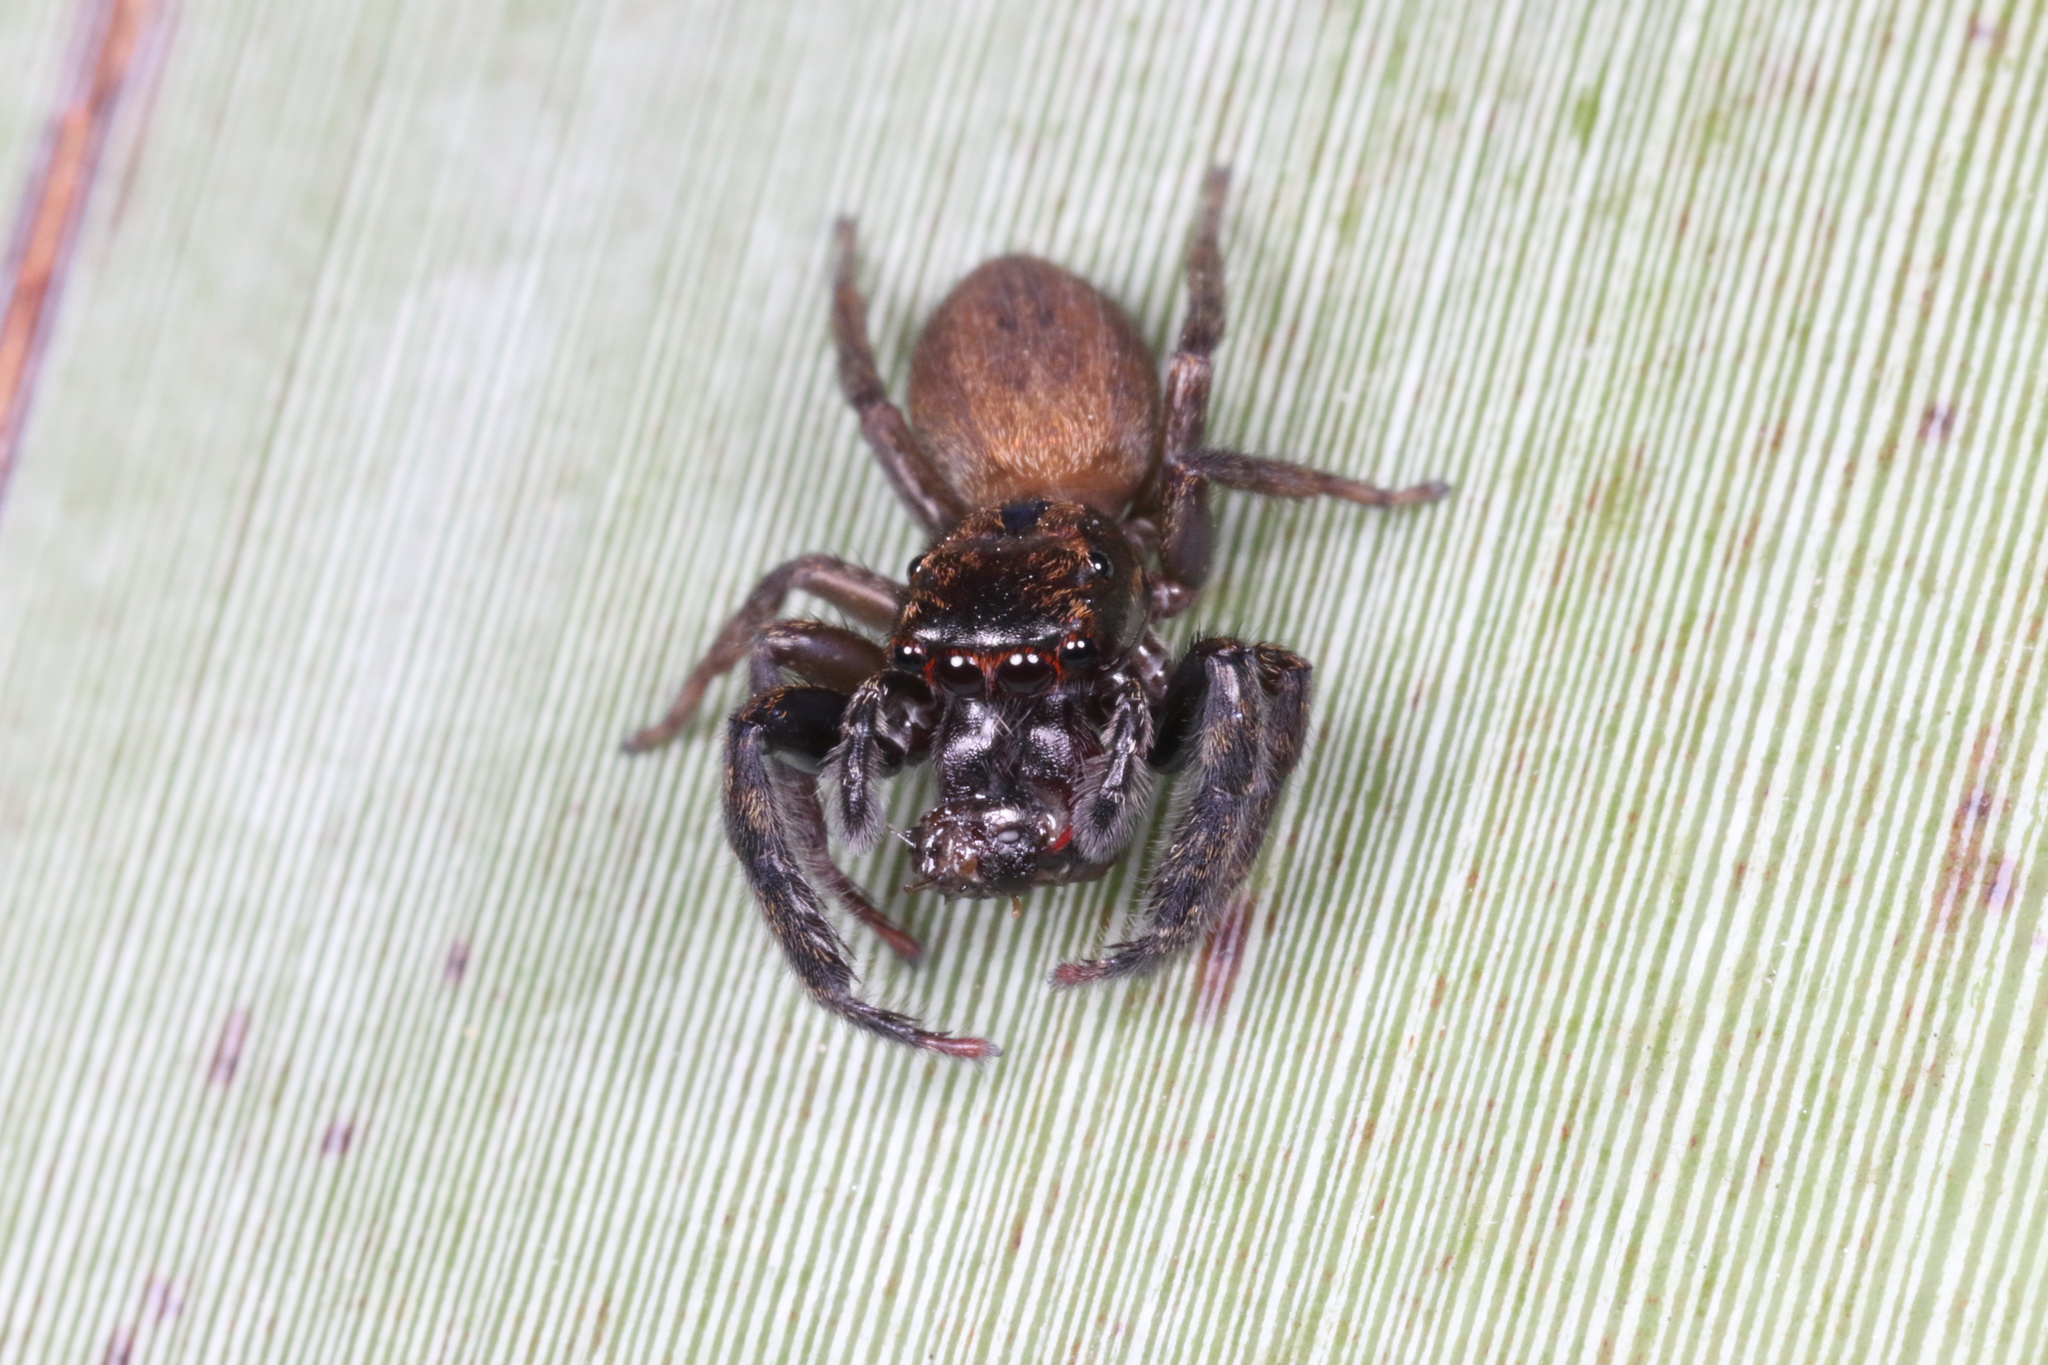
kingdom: Animalia
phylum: Arthropoda
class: Arachnida
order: Araneae
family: Salticidae
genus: Trite
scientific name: Trite auricoma
